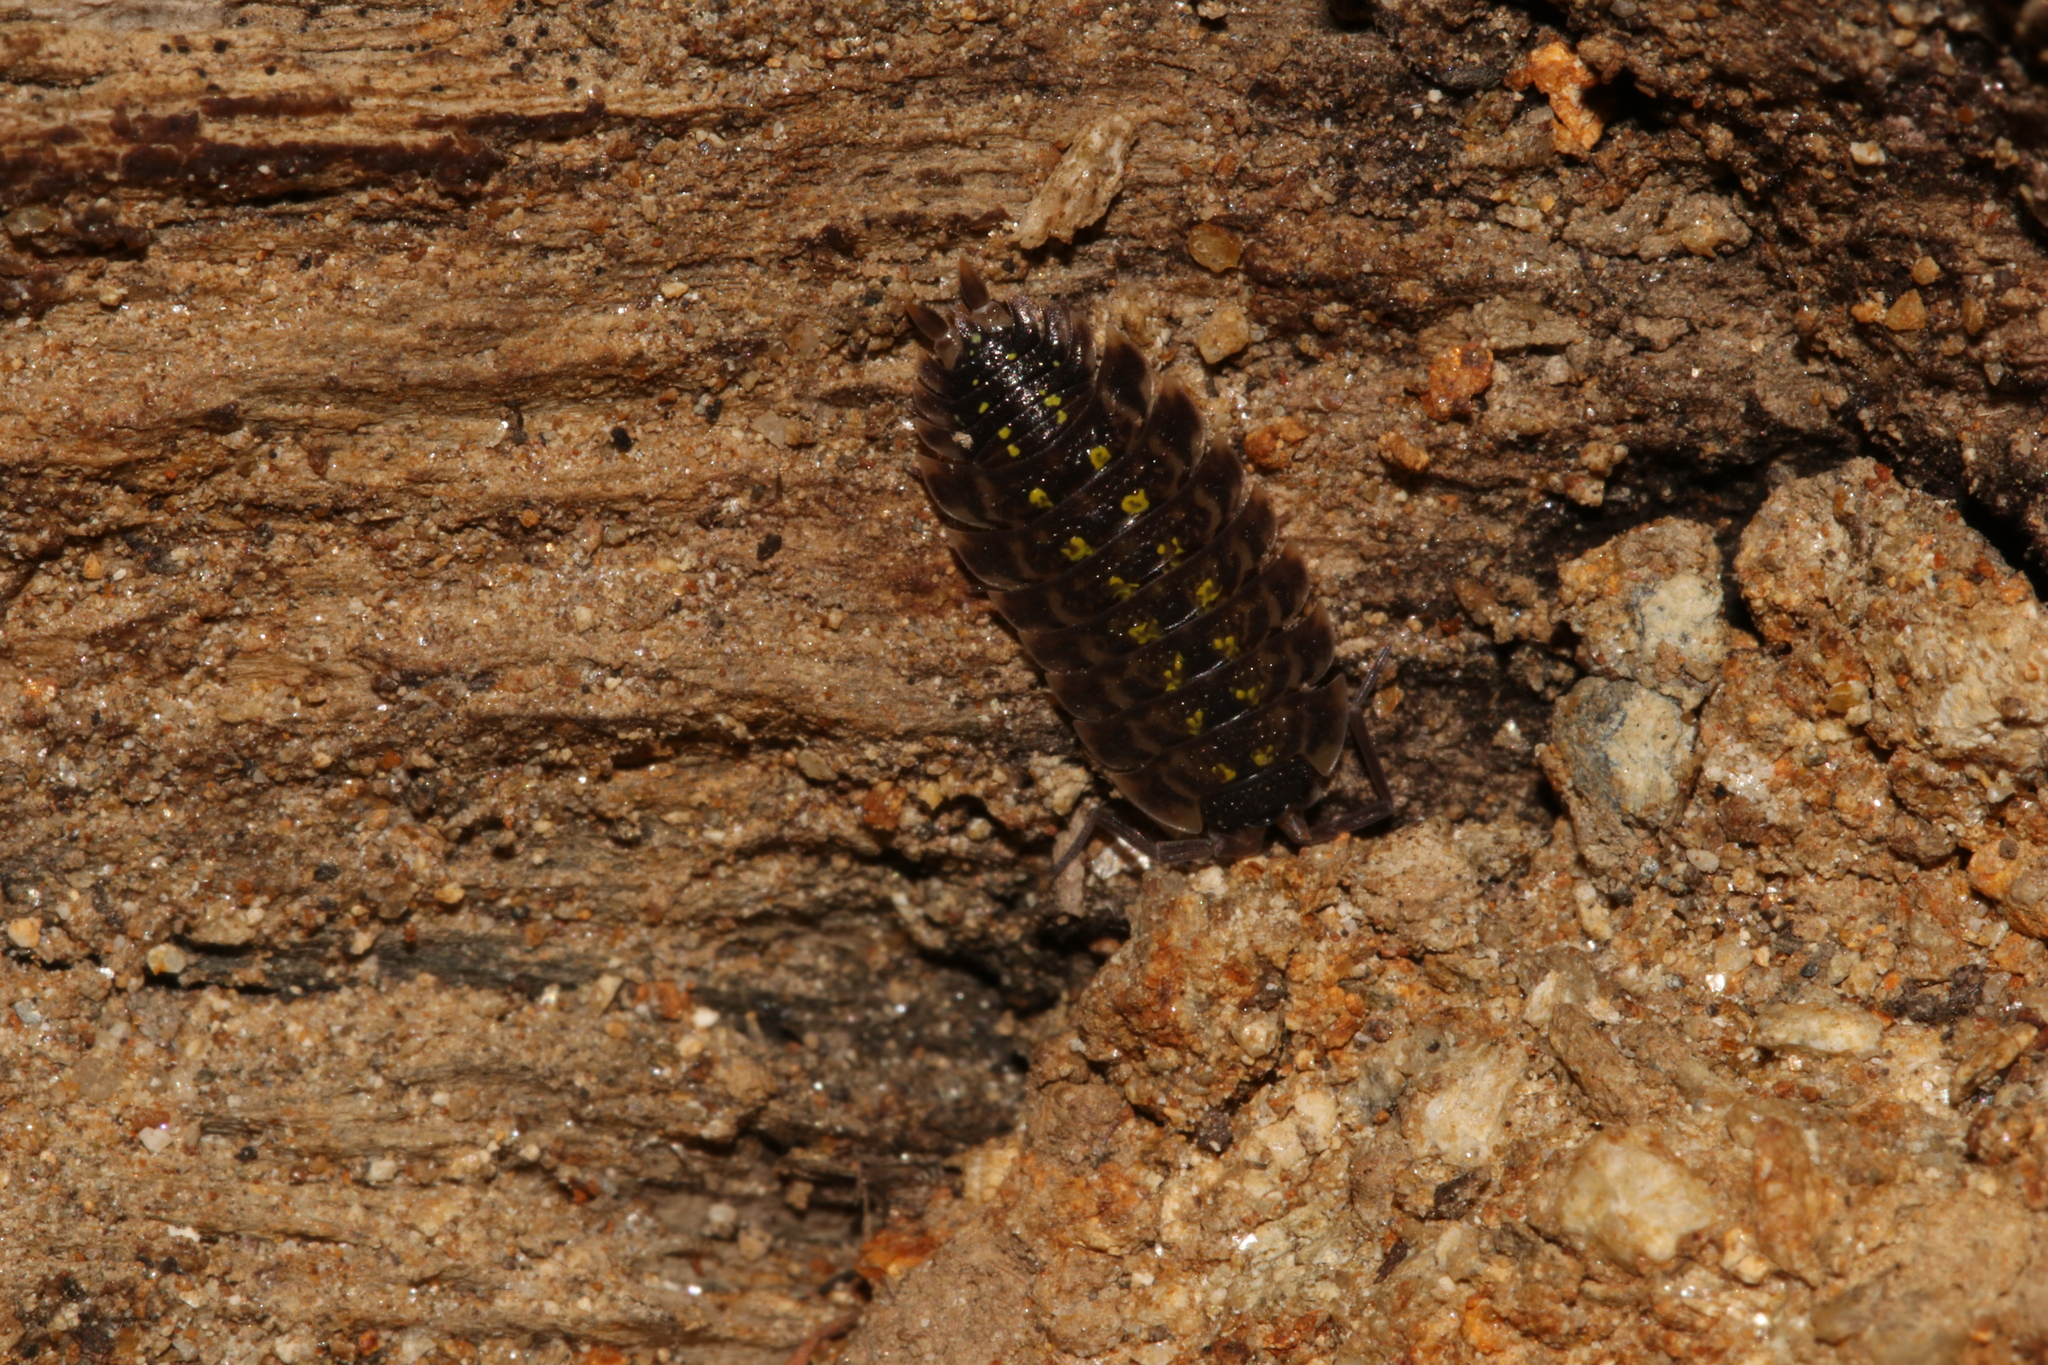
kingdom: Animalia
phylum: Arthropoda
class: Malacostraca
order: Isopoda
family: Porcellionidae
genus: Porcellio
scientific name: Porcellio spinicornis
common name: Painted woodlouse
